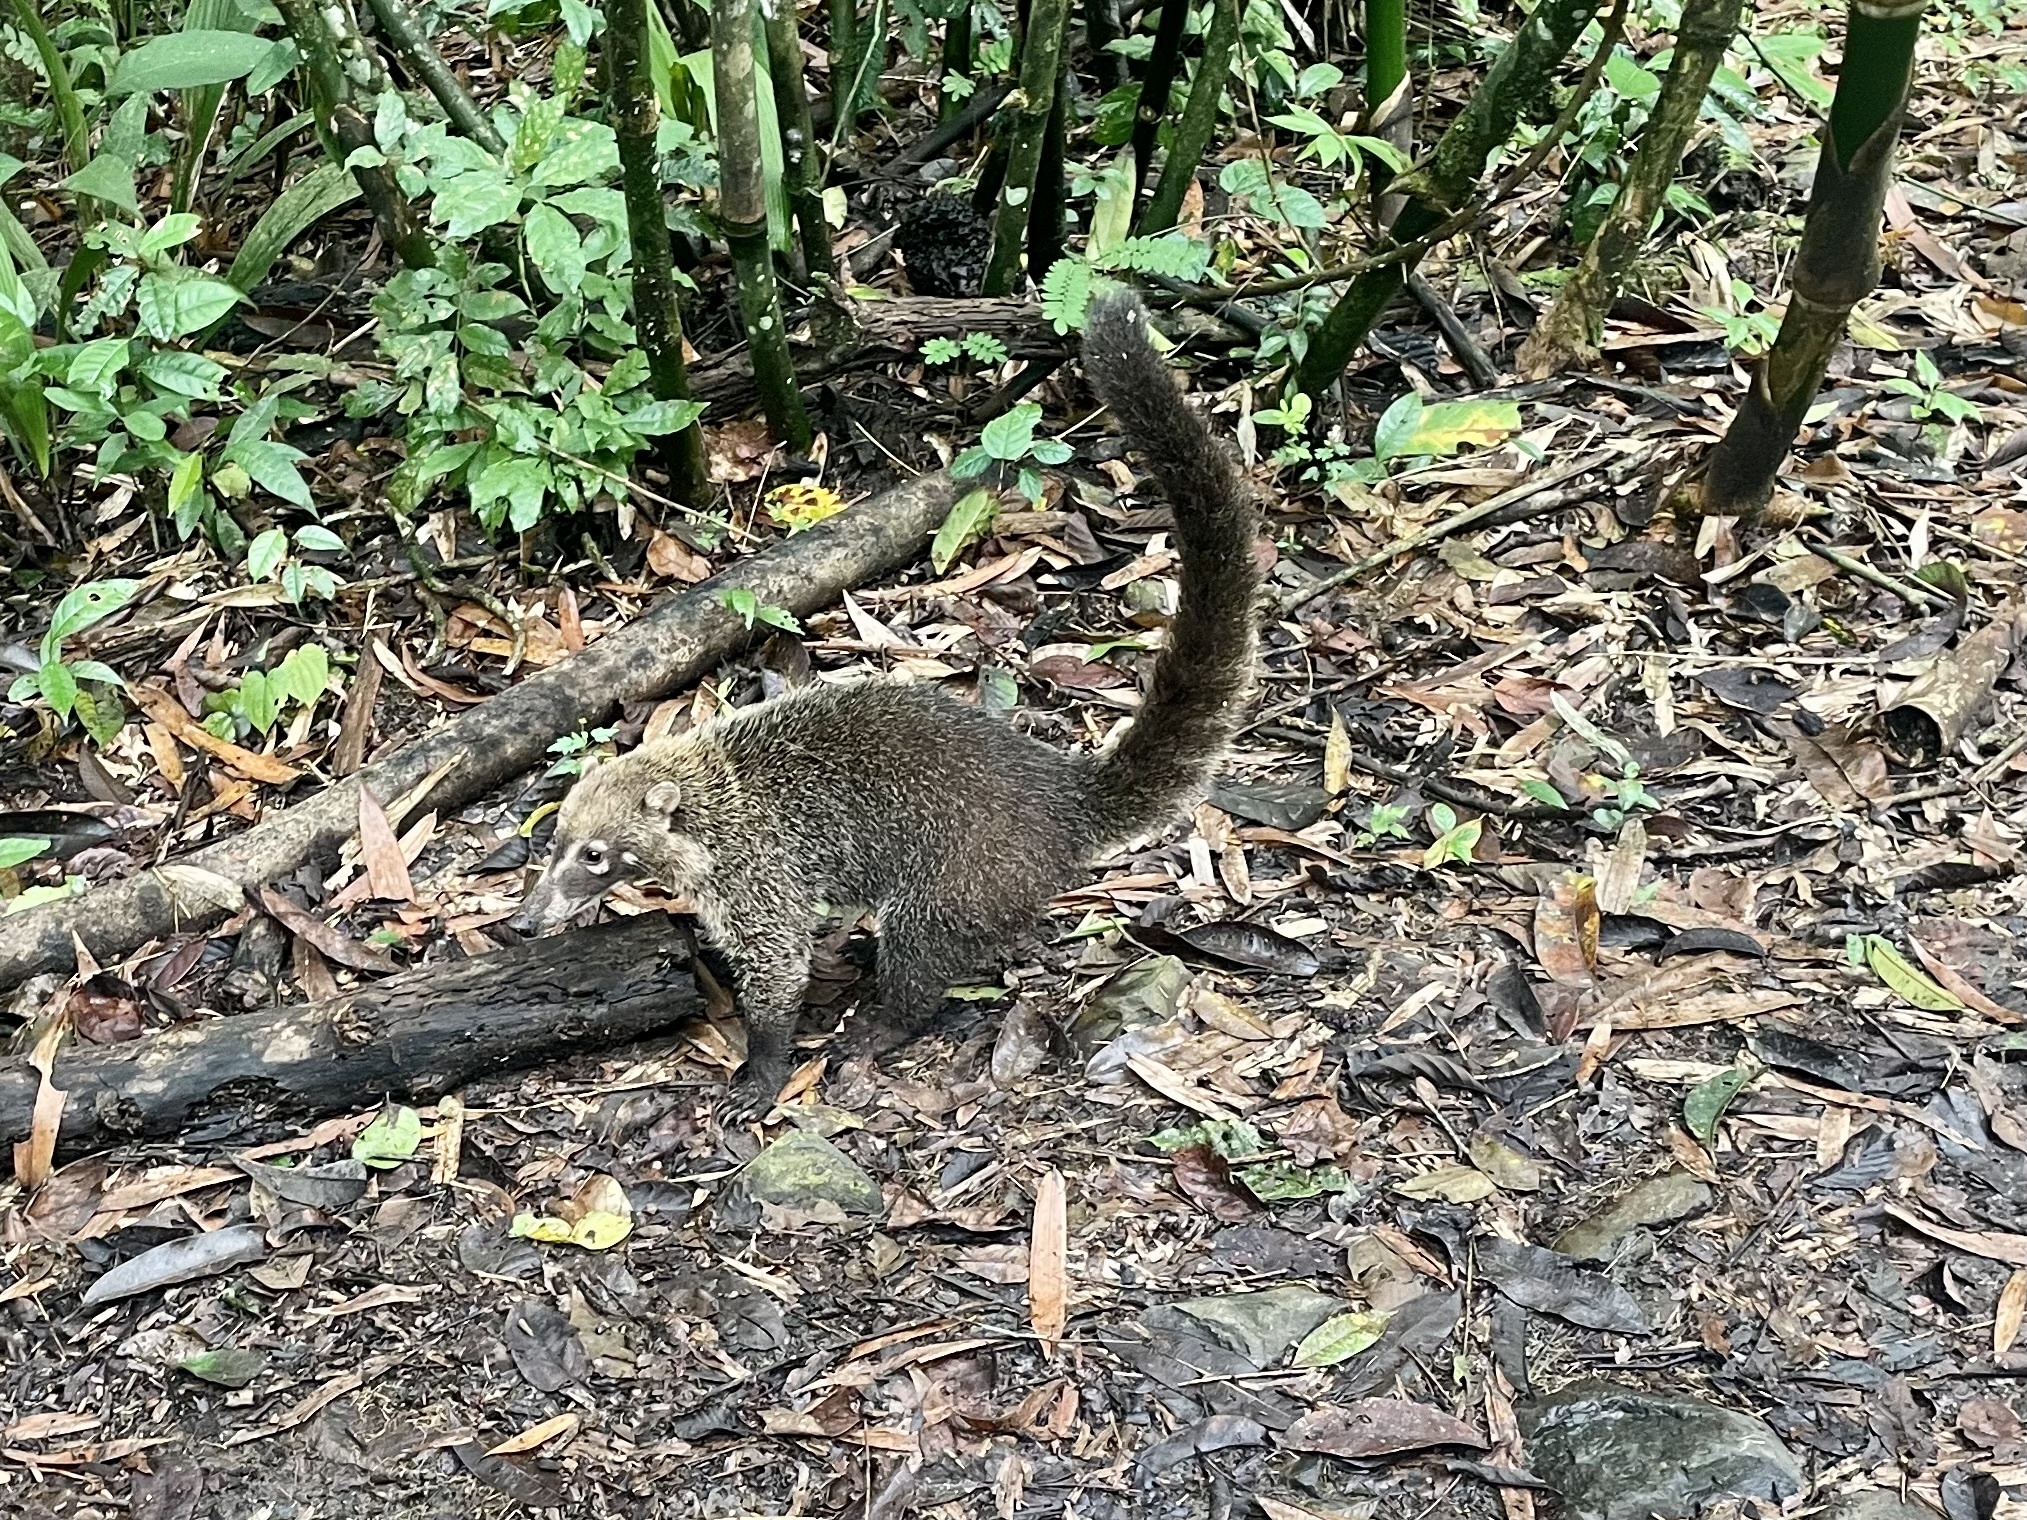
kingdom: Animalia
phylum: Chordata
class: Mammalia
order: Carnivora
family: Procyonidae
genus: Nasua
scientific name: Nasua narica
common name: White-nosed coati
